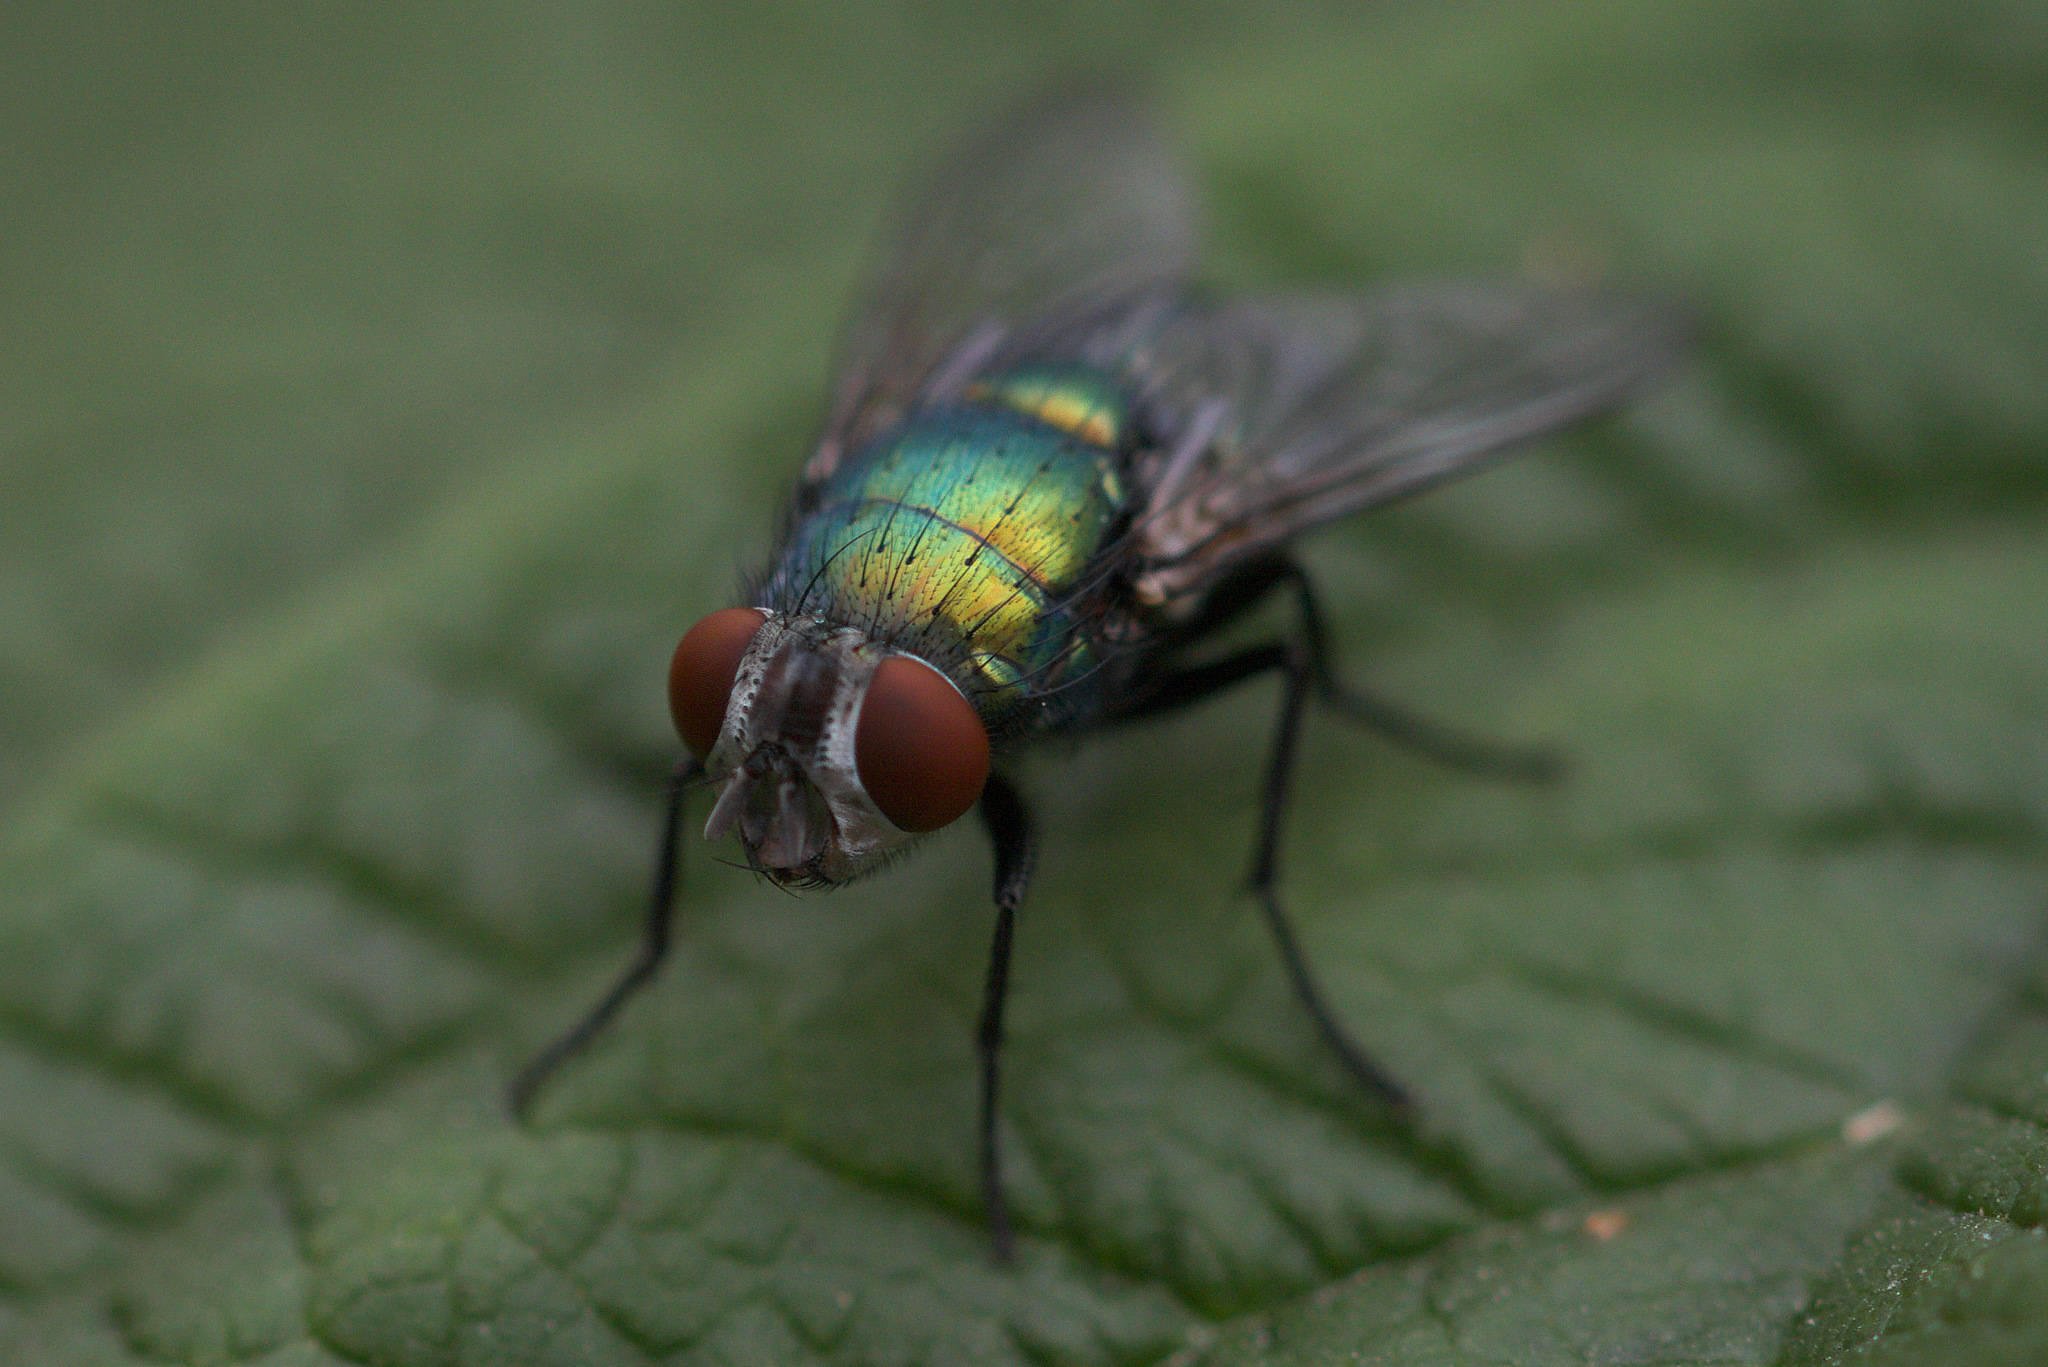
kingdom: Animalia
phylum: Arthropoda
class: Insecta
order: Diptera
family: Calliphoridae
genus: Lucilia
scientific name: Lucilia sericata
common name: Blow fly
